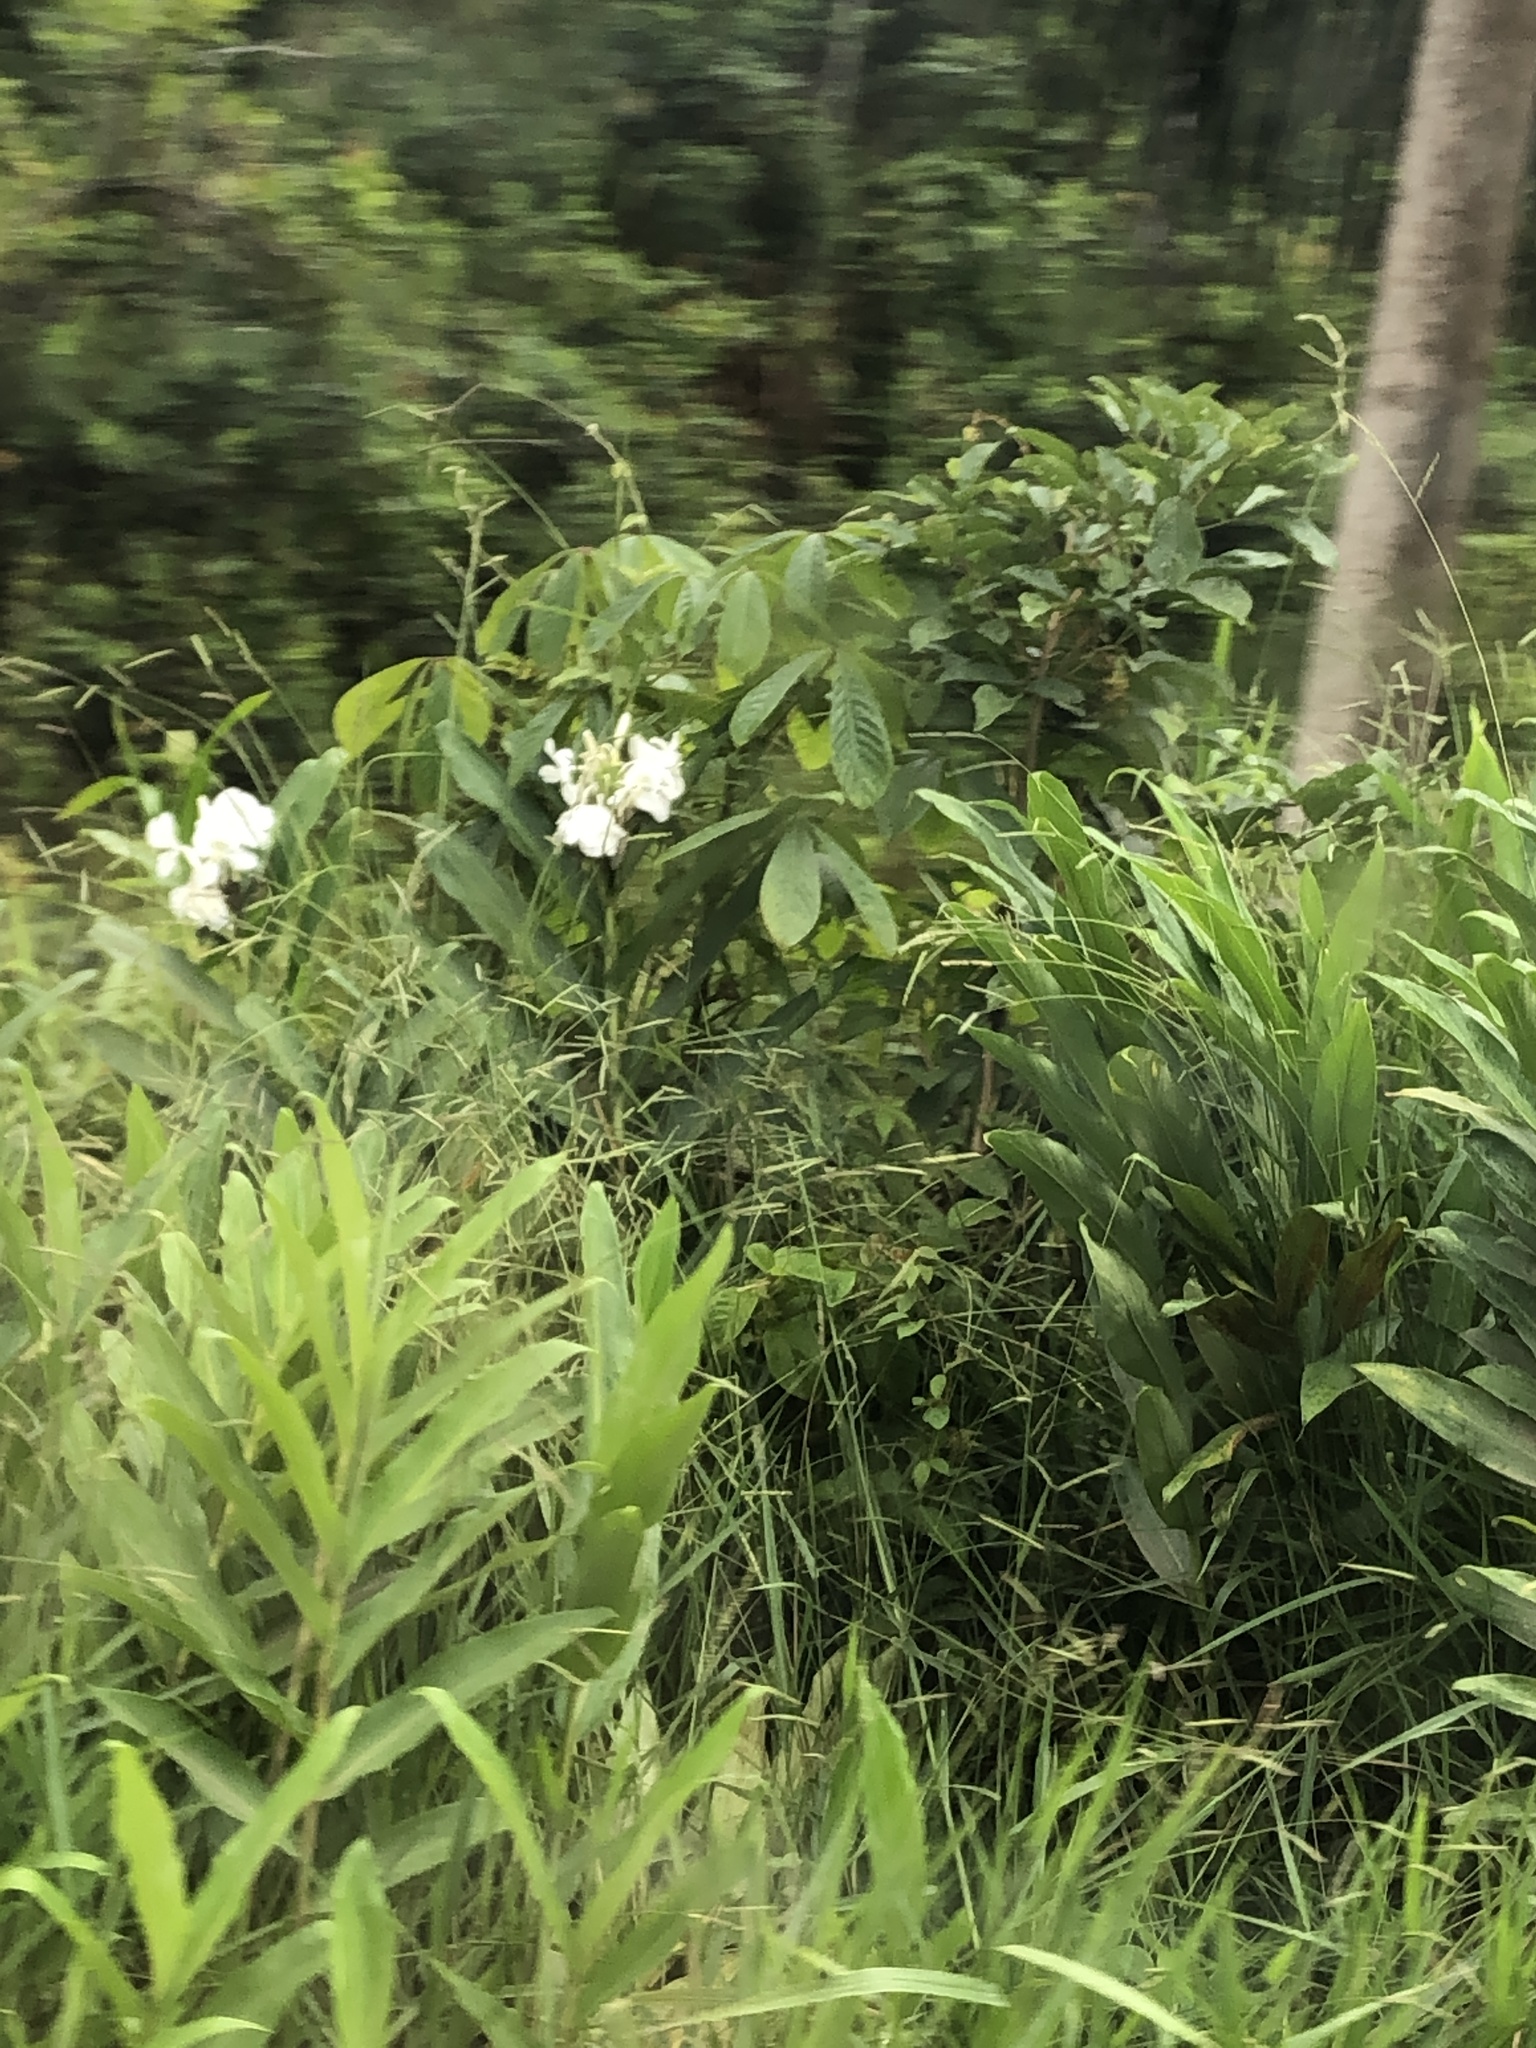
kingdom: Plantae
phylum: Tracheophyta
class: Liliopsida
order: Zingiberales
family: Zingiberaceae
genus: Hedychium
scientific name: Hedychium coronarium
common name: White garland-lily
